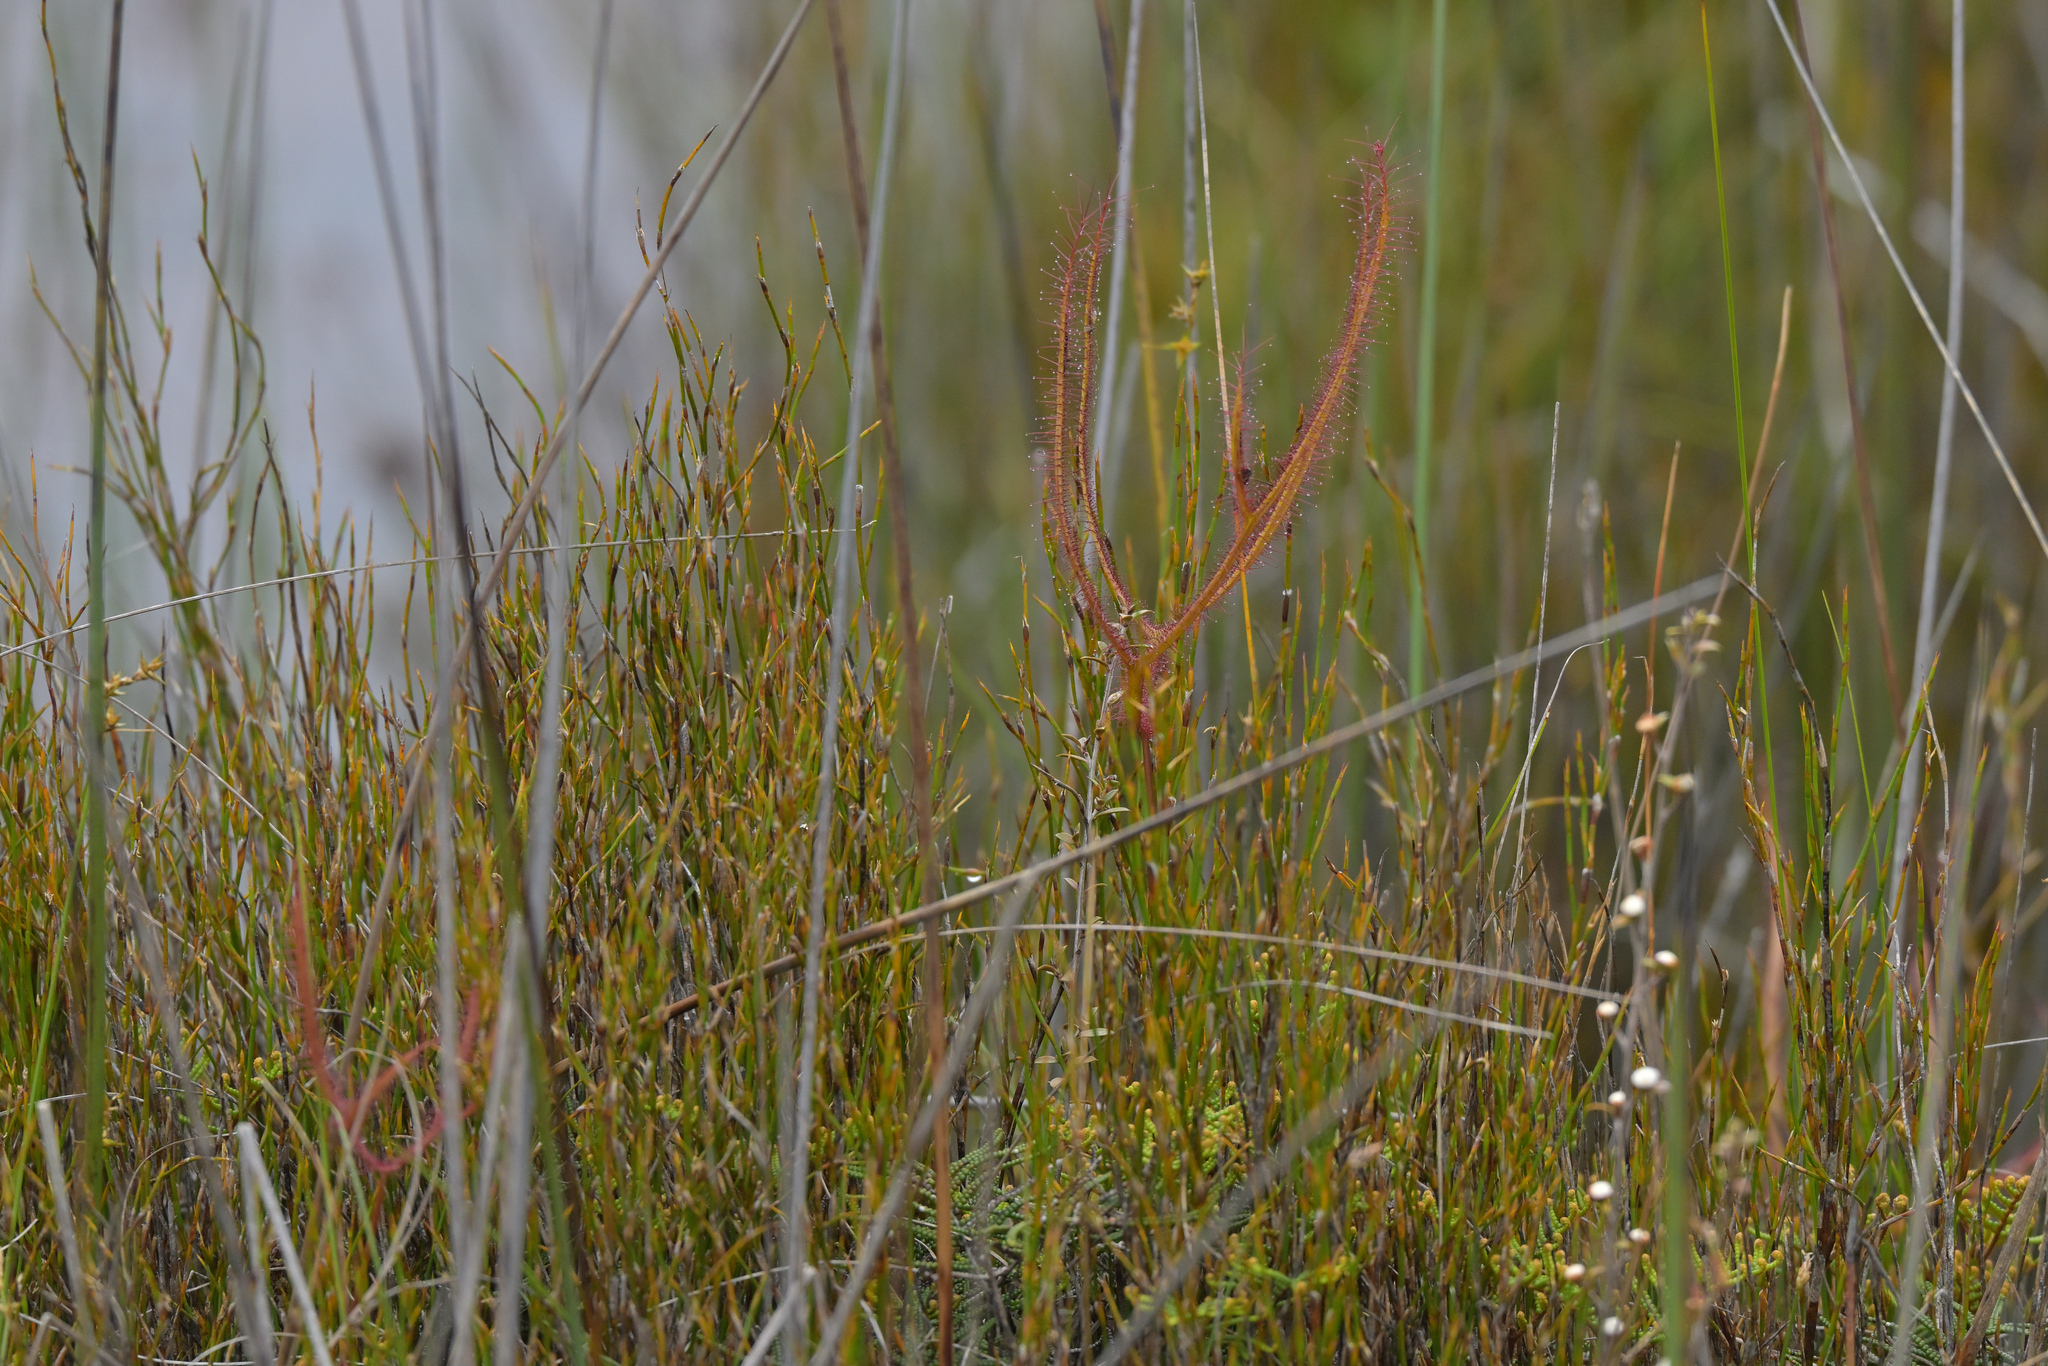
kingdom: Plantae
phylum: Tracheophyta
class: Magnoliopsida
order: Caryophyllales
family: Droseraceae
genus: Drosera
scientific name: Drosera binata
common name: Forked sundew
